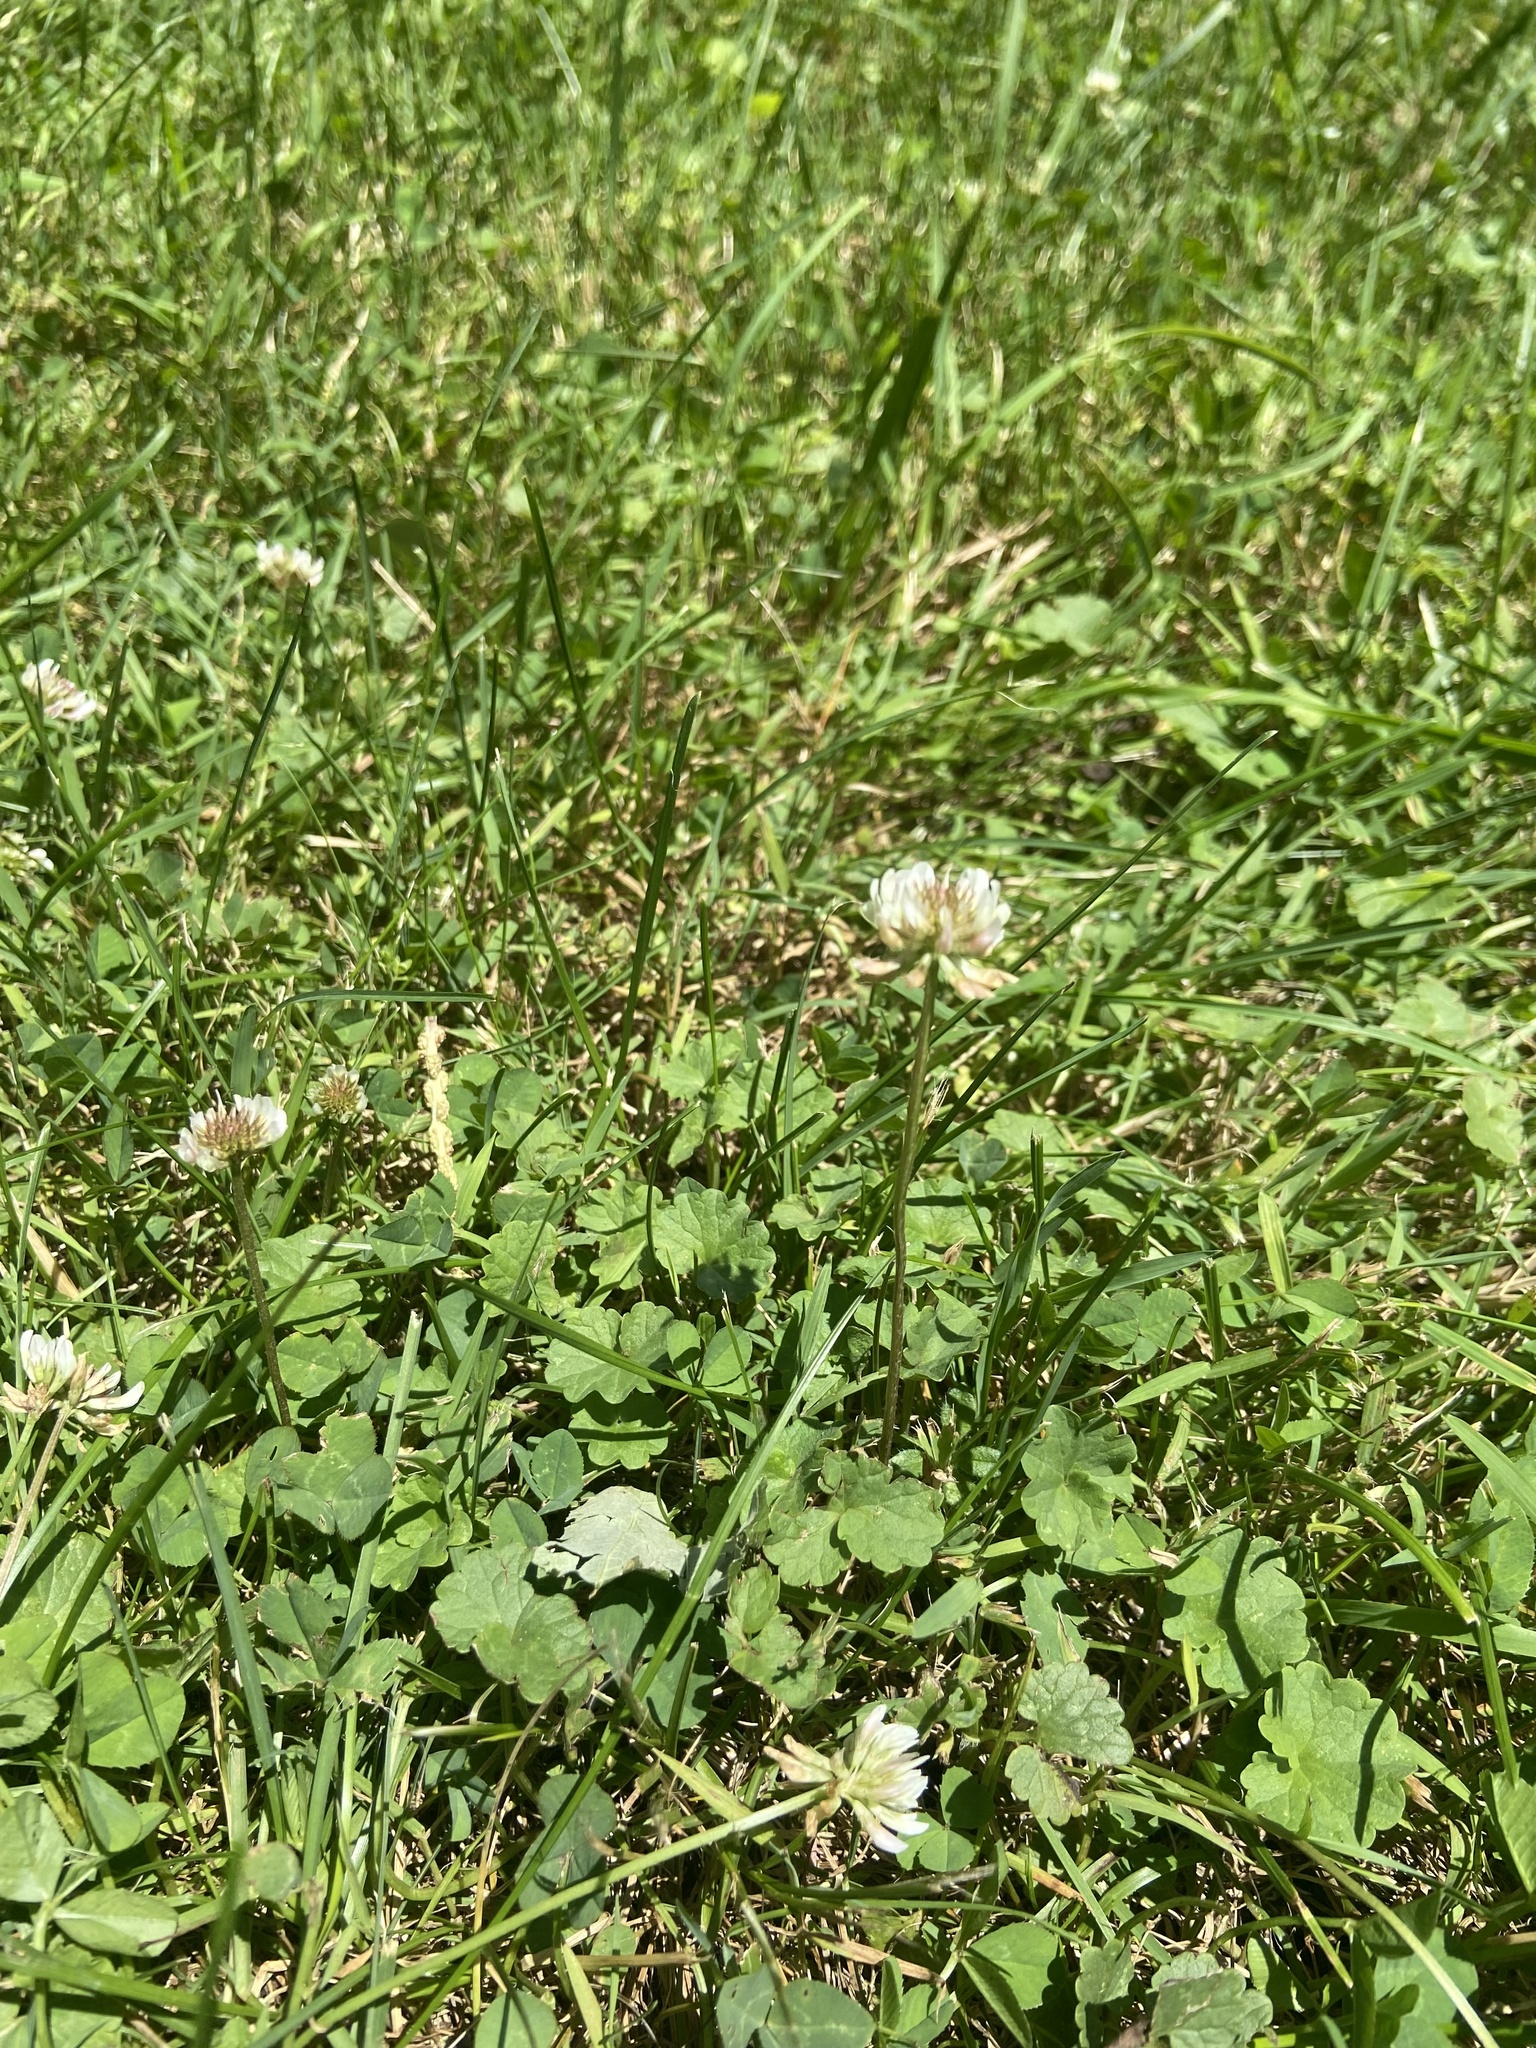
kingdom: Plantae
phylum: Tracheophyta
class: Magnoliopsida
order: Fabales
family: Fabaceae
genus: Trifolium
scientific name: Trifolium repens
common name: White clover
